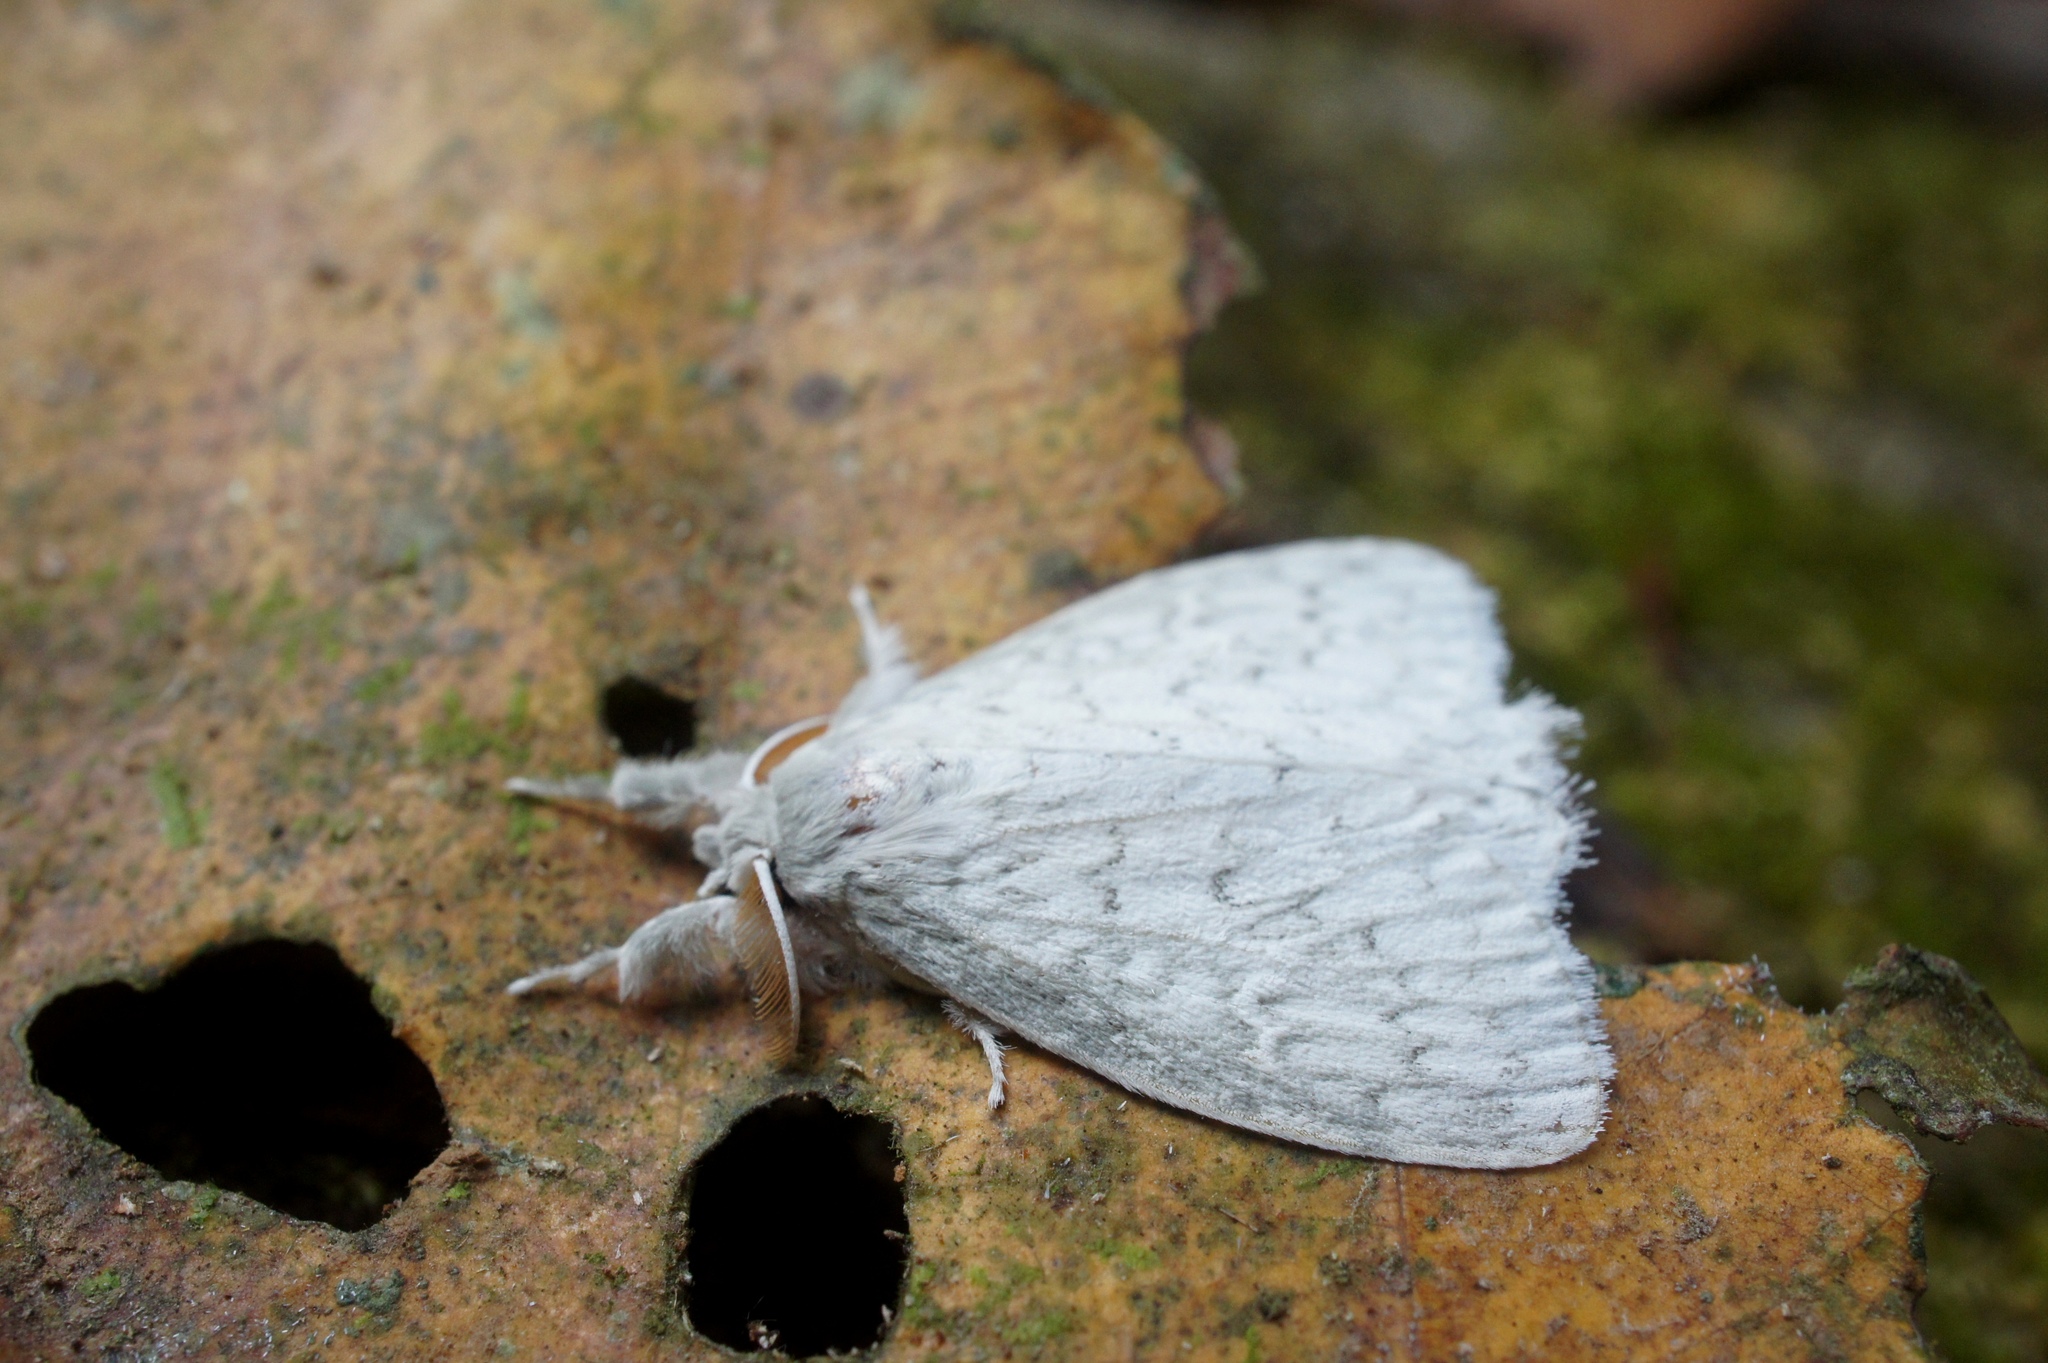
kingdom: Animalia
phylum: Arthropoda
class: Insecta
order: Lepidoptera
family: Erebidae
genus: Dura
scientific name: Dura amianta
